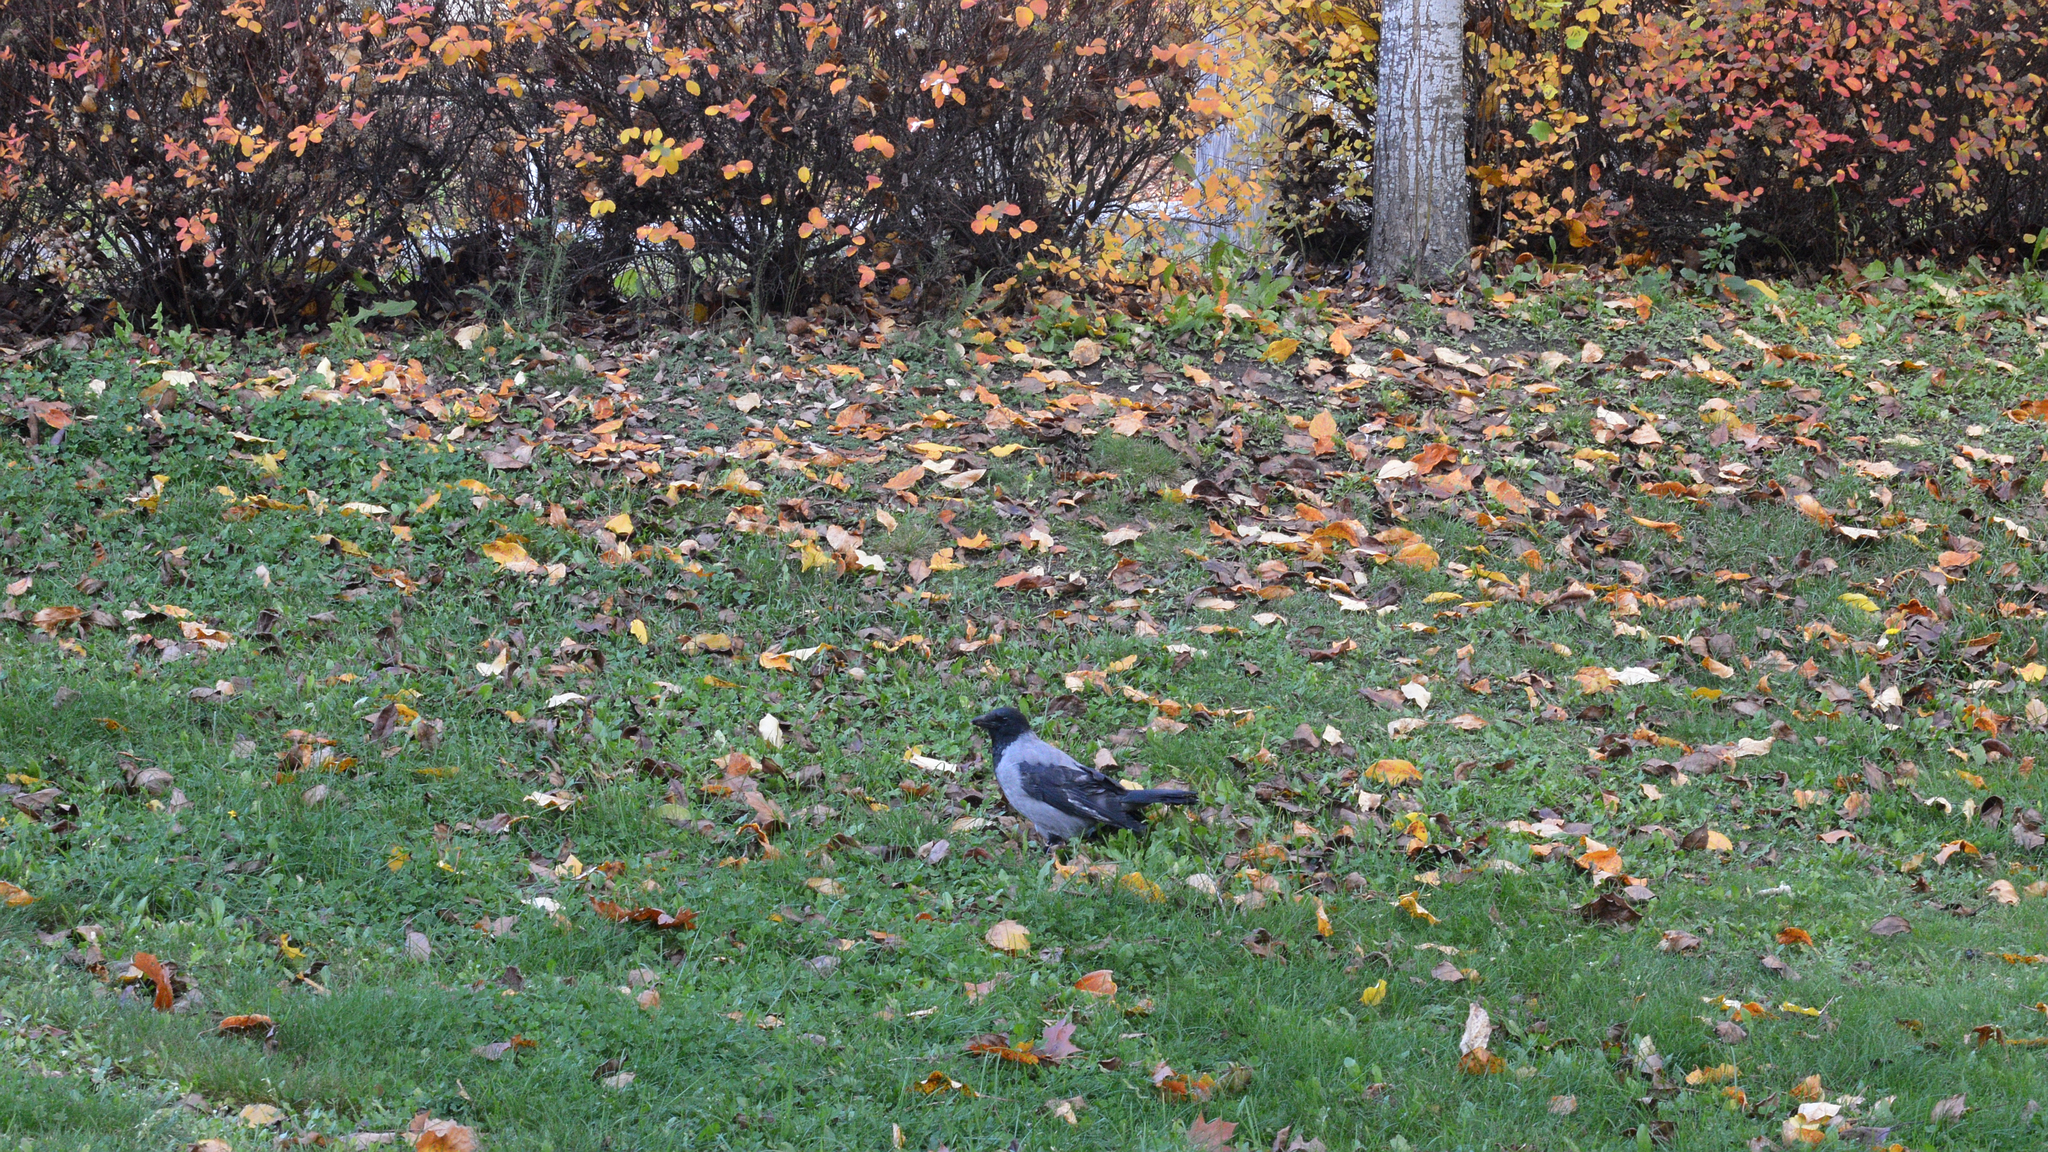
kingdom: Animalia
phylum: Chordata
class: Aves
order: Passeriformes
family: Corvidae
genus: Corvus
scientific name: Corvus cornix
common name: Hooded crow
